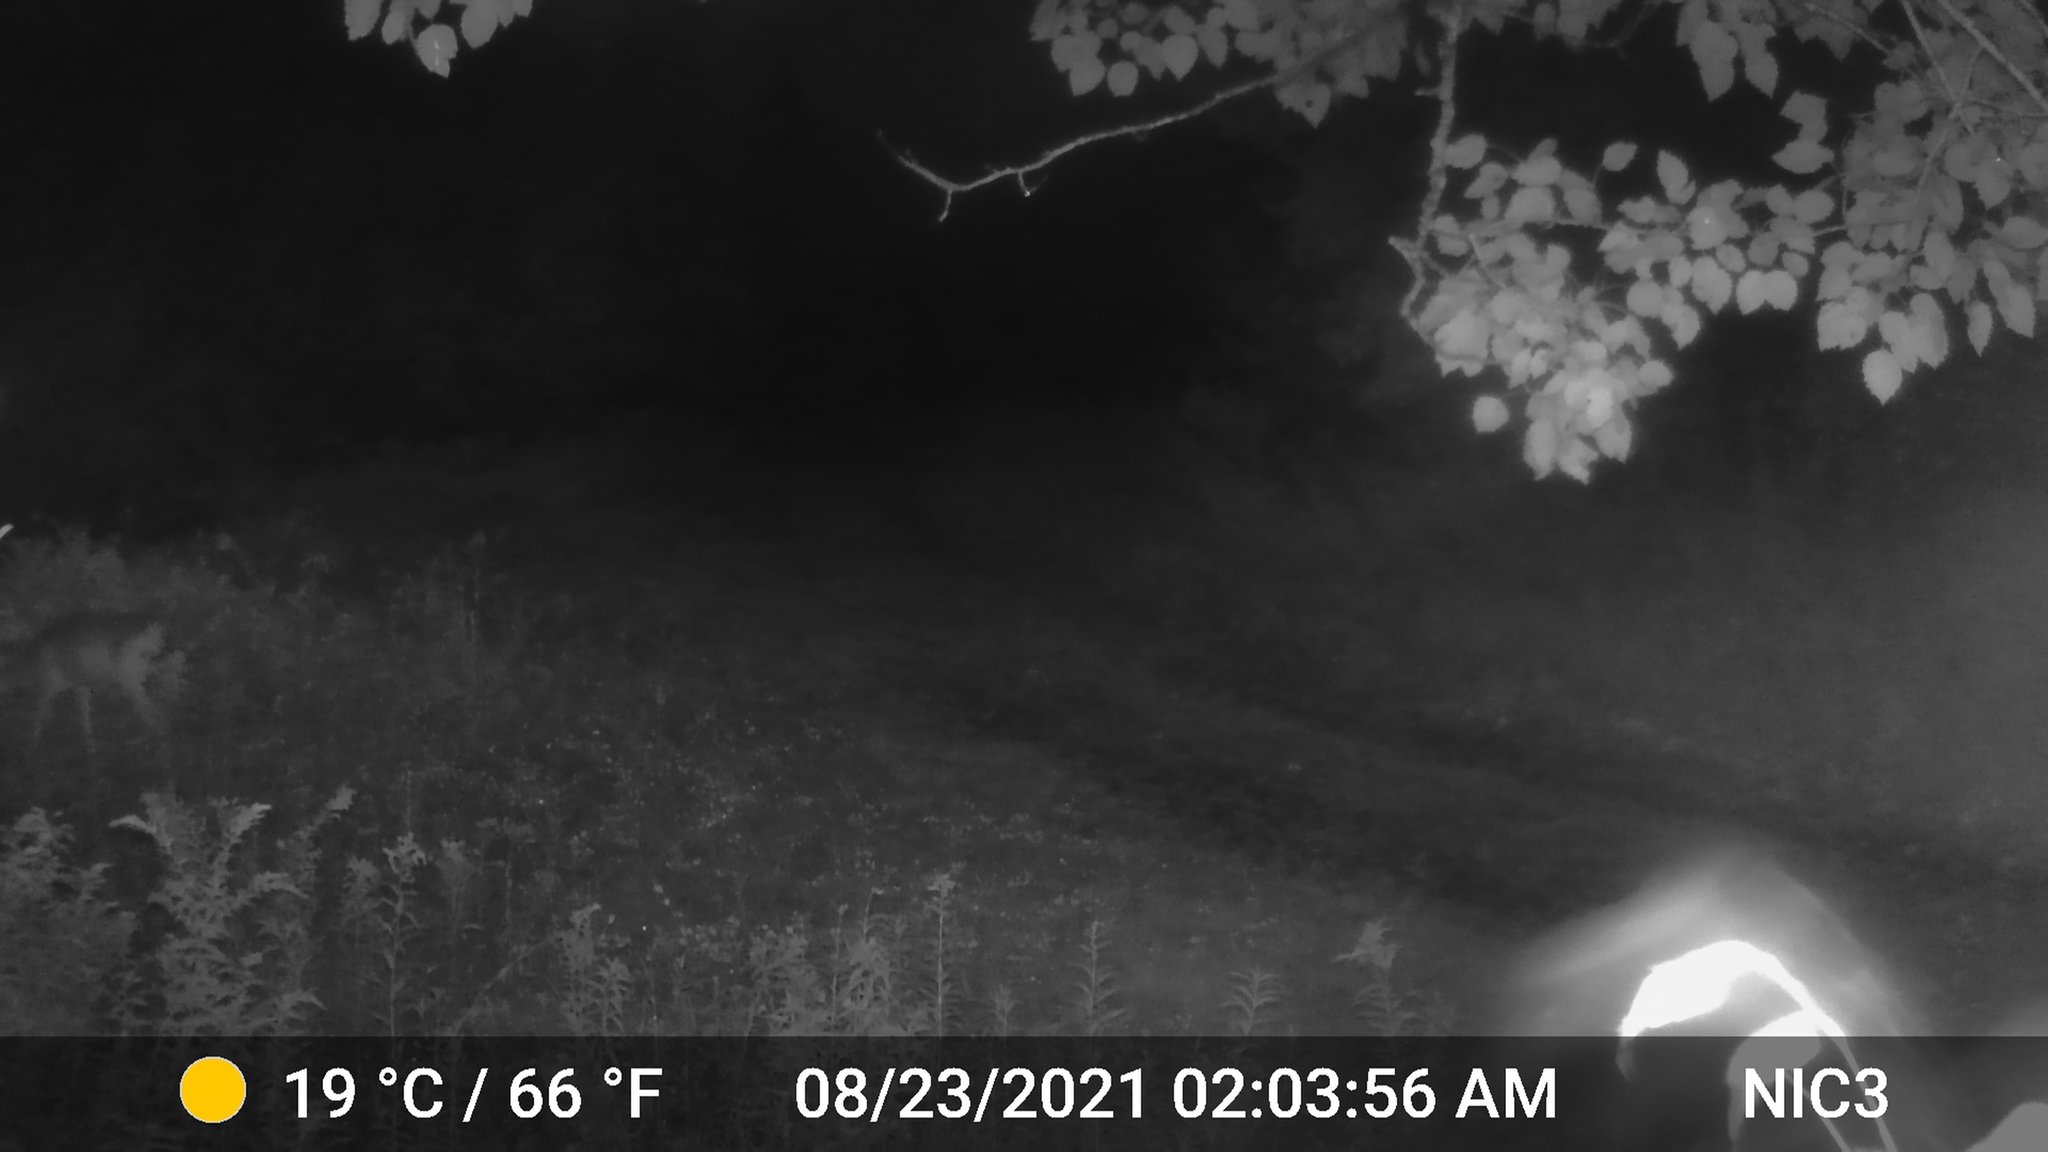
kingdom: Animalia
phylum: Chordata
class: Mammalia
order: Artiodactyla
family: Cervidae
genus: Odocoileus
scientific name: Odocoileus virginianus
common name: White-tailed deer
